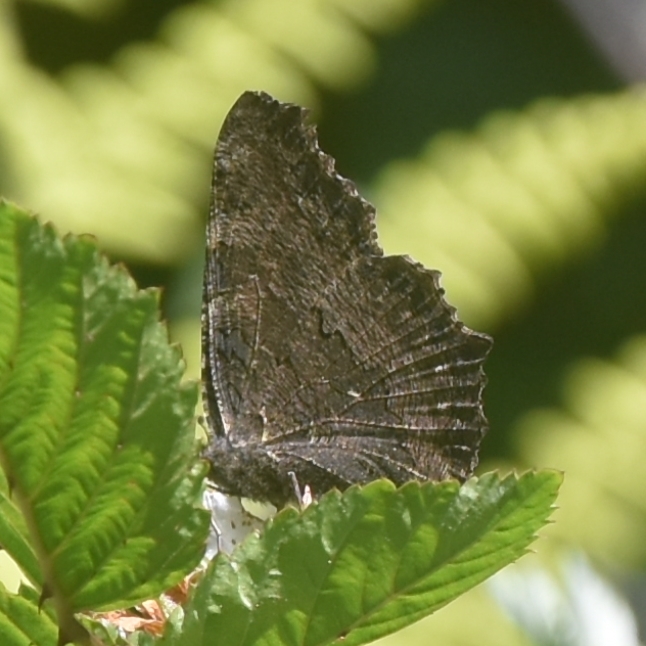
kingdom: Animalia
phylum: Arthropoda
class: Insecta
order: Lepidoptera
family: Nymphalidae
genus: Aglais
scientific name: Aglais caschmirensis
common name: Indian tortoiseshell
